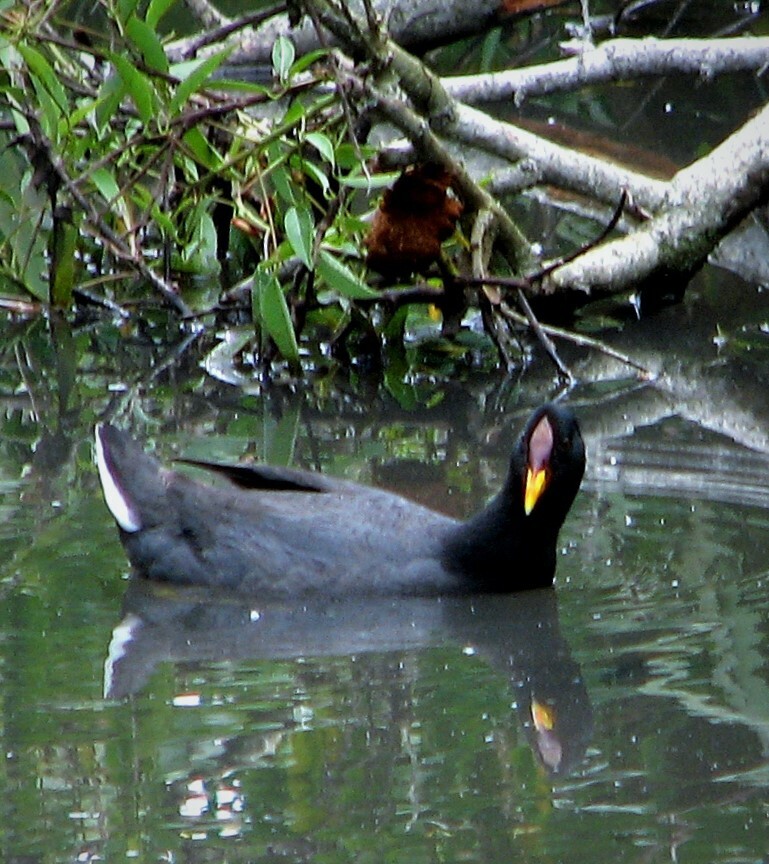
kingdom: Animalia
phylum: Chordata
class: Aves
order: Gruiformes
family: Rallidae
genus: Fulica
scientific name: Fulica rufifrons
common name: Red-fronted coot
